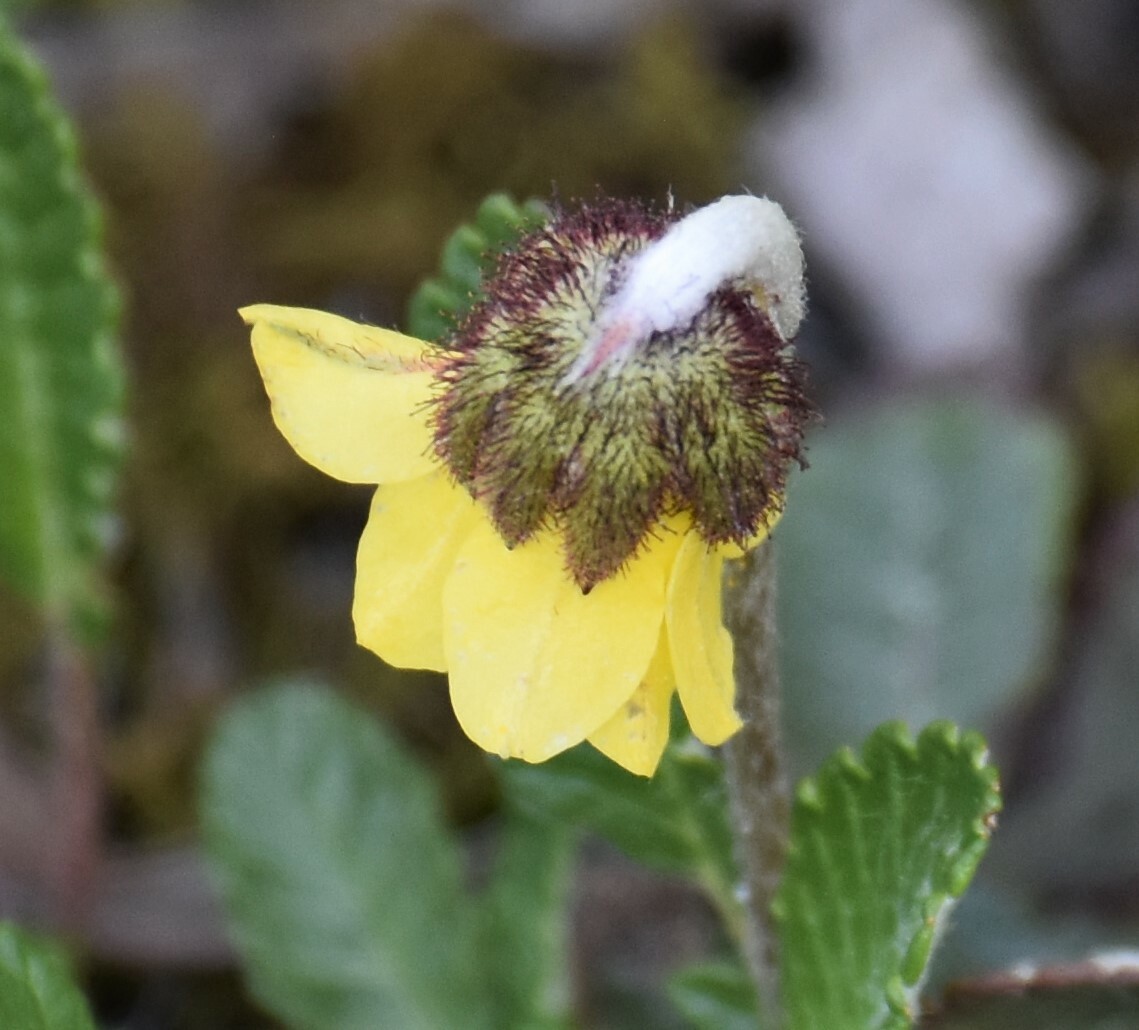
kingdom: Plantae
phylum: Tracheophyta
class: Magnoliopsida
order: Rosales
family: Rosaceae
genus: Dryas
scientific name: Dryas drummondii
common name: Drummond's dryad
